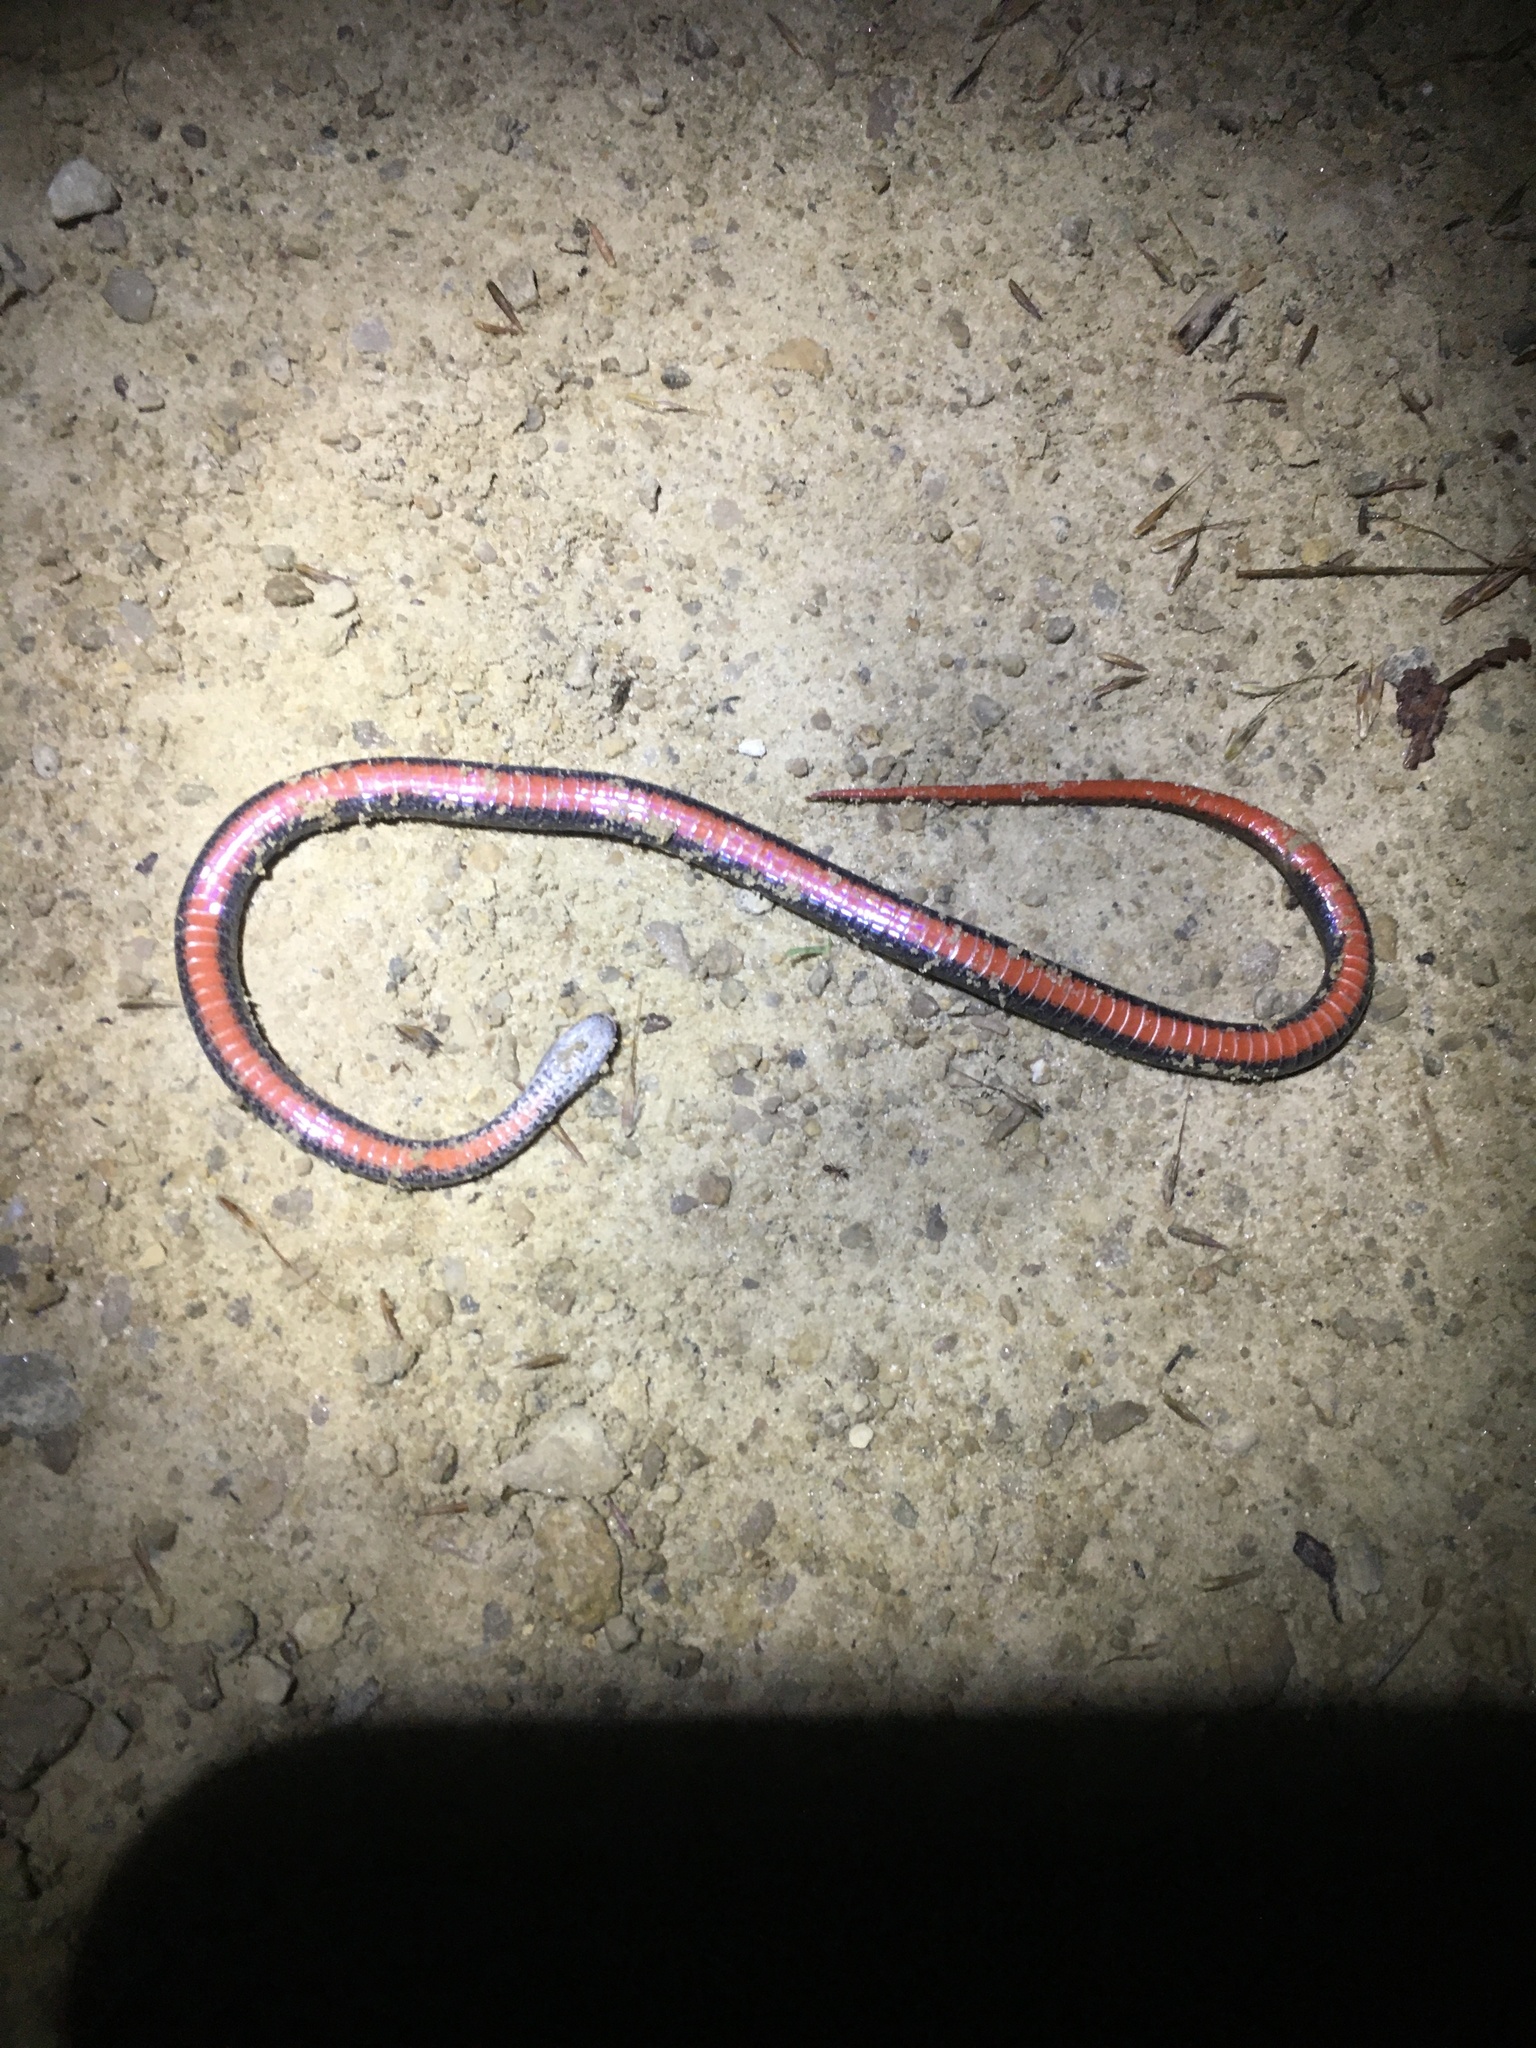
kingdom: Animalia
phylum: Chordata
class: Squamata
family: Colubridae
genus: Storeria
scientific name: Storeria occipitomaculata
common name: Redbelly snake
